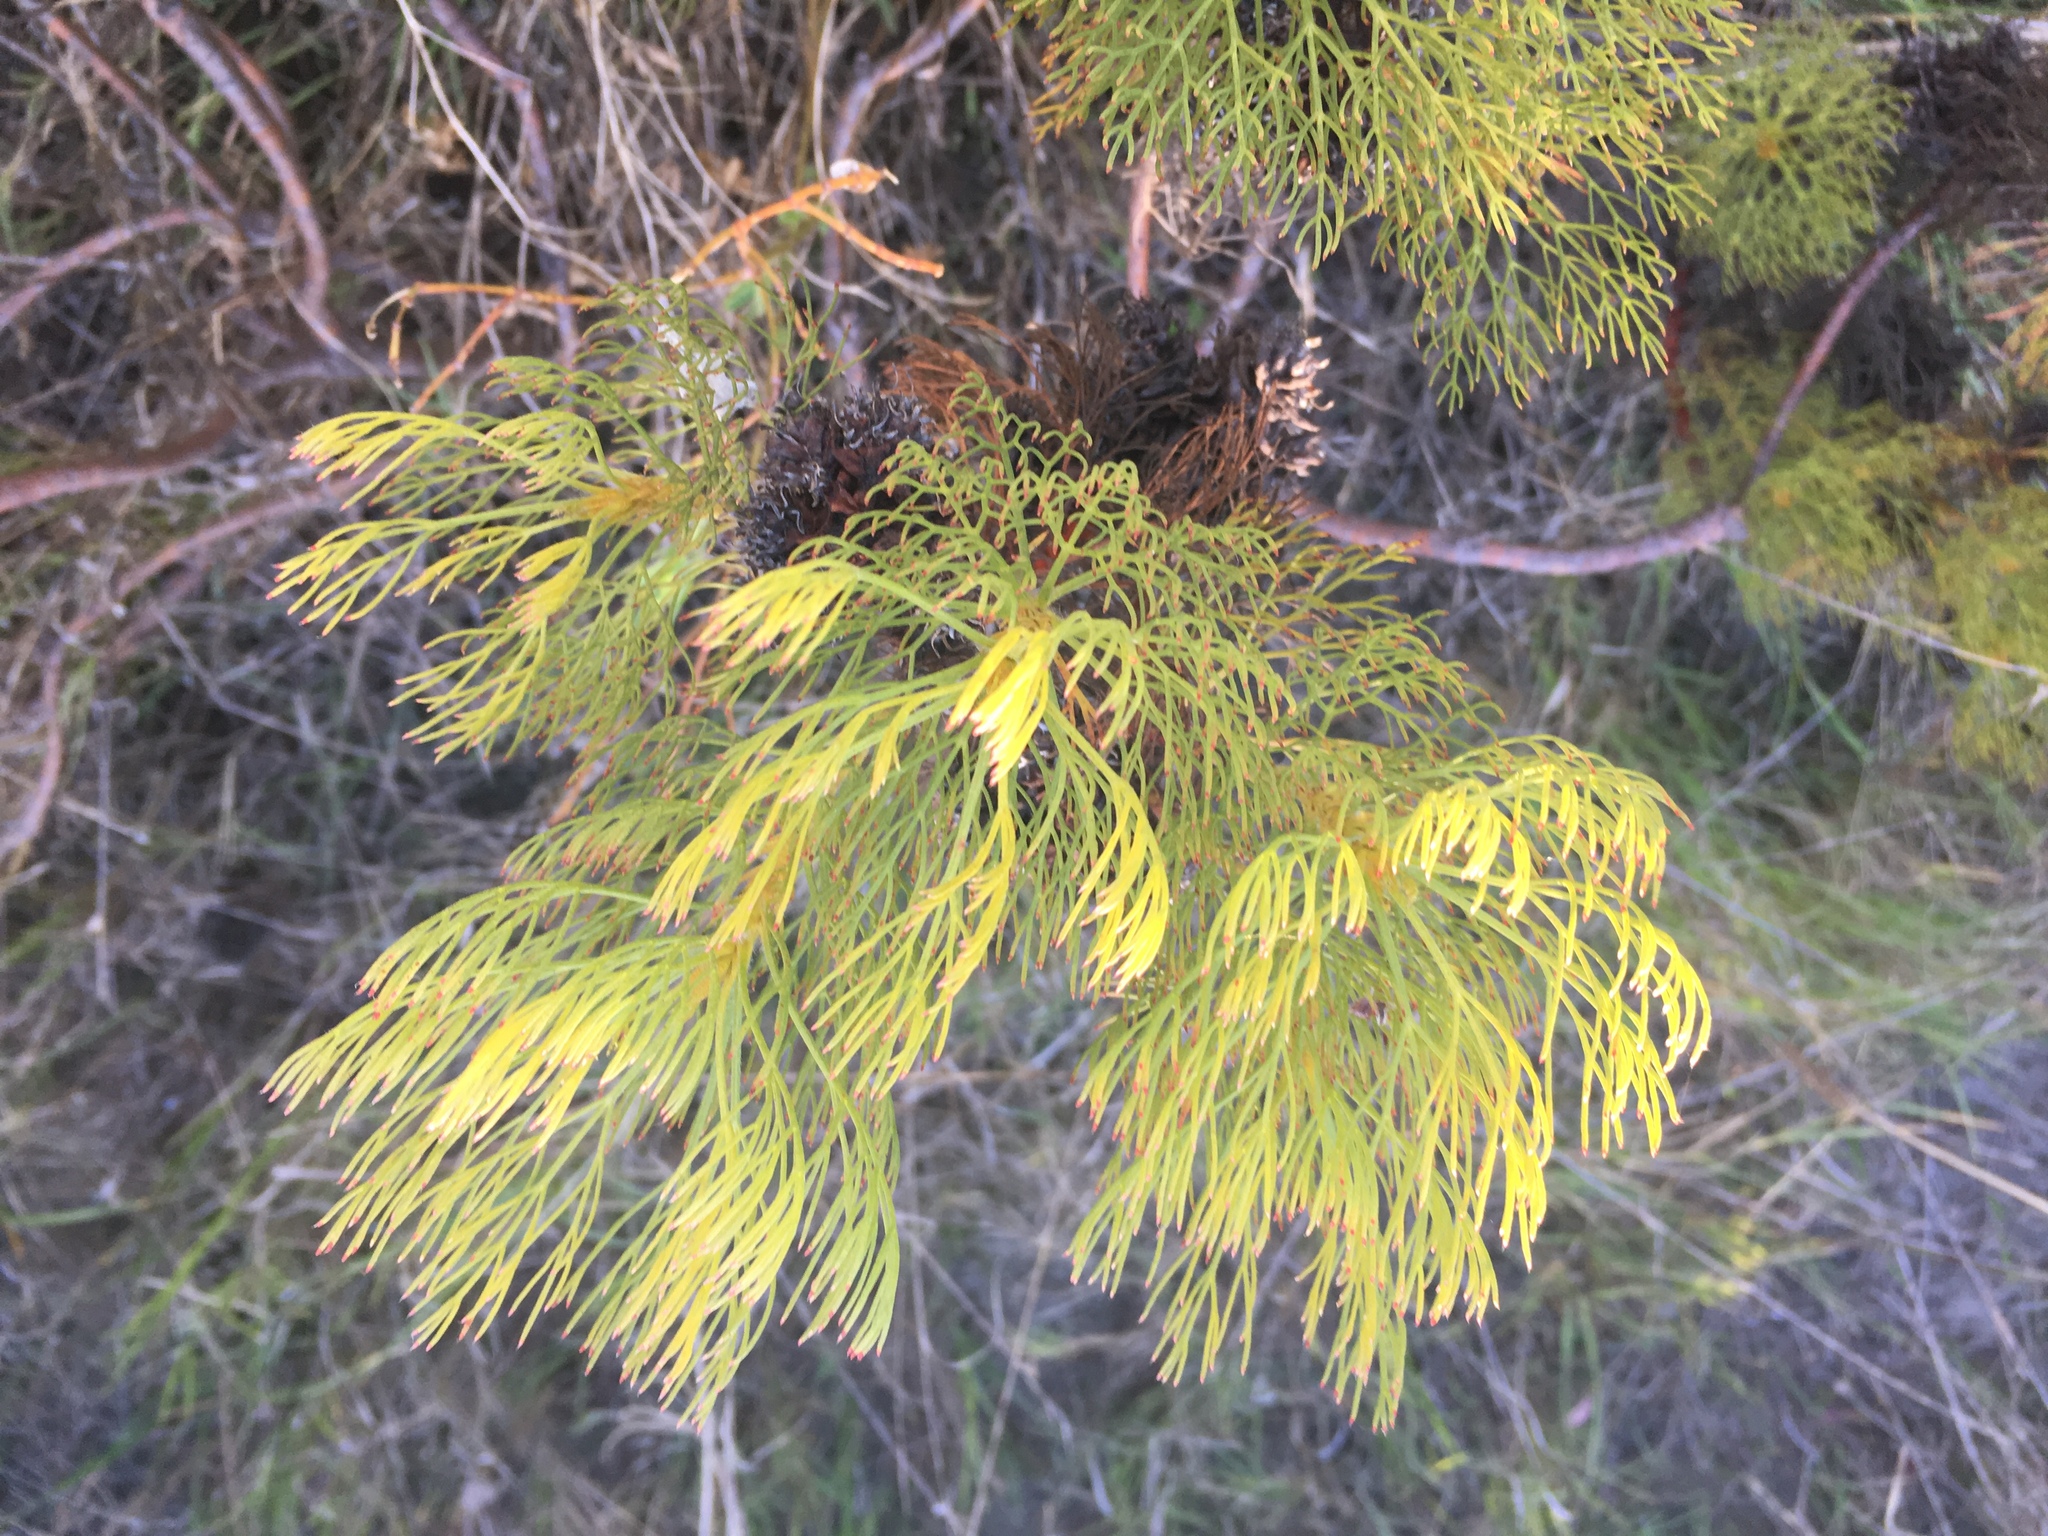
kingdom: Plantae
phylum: Tracheophyta
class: Magnoliopsida
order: Proteales
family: Proteaceae
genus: Serruria
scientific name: Serruria glomerata
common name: Cluster spiderhead
